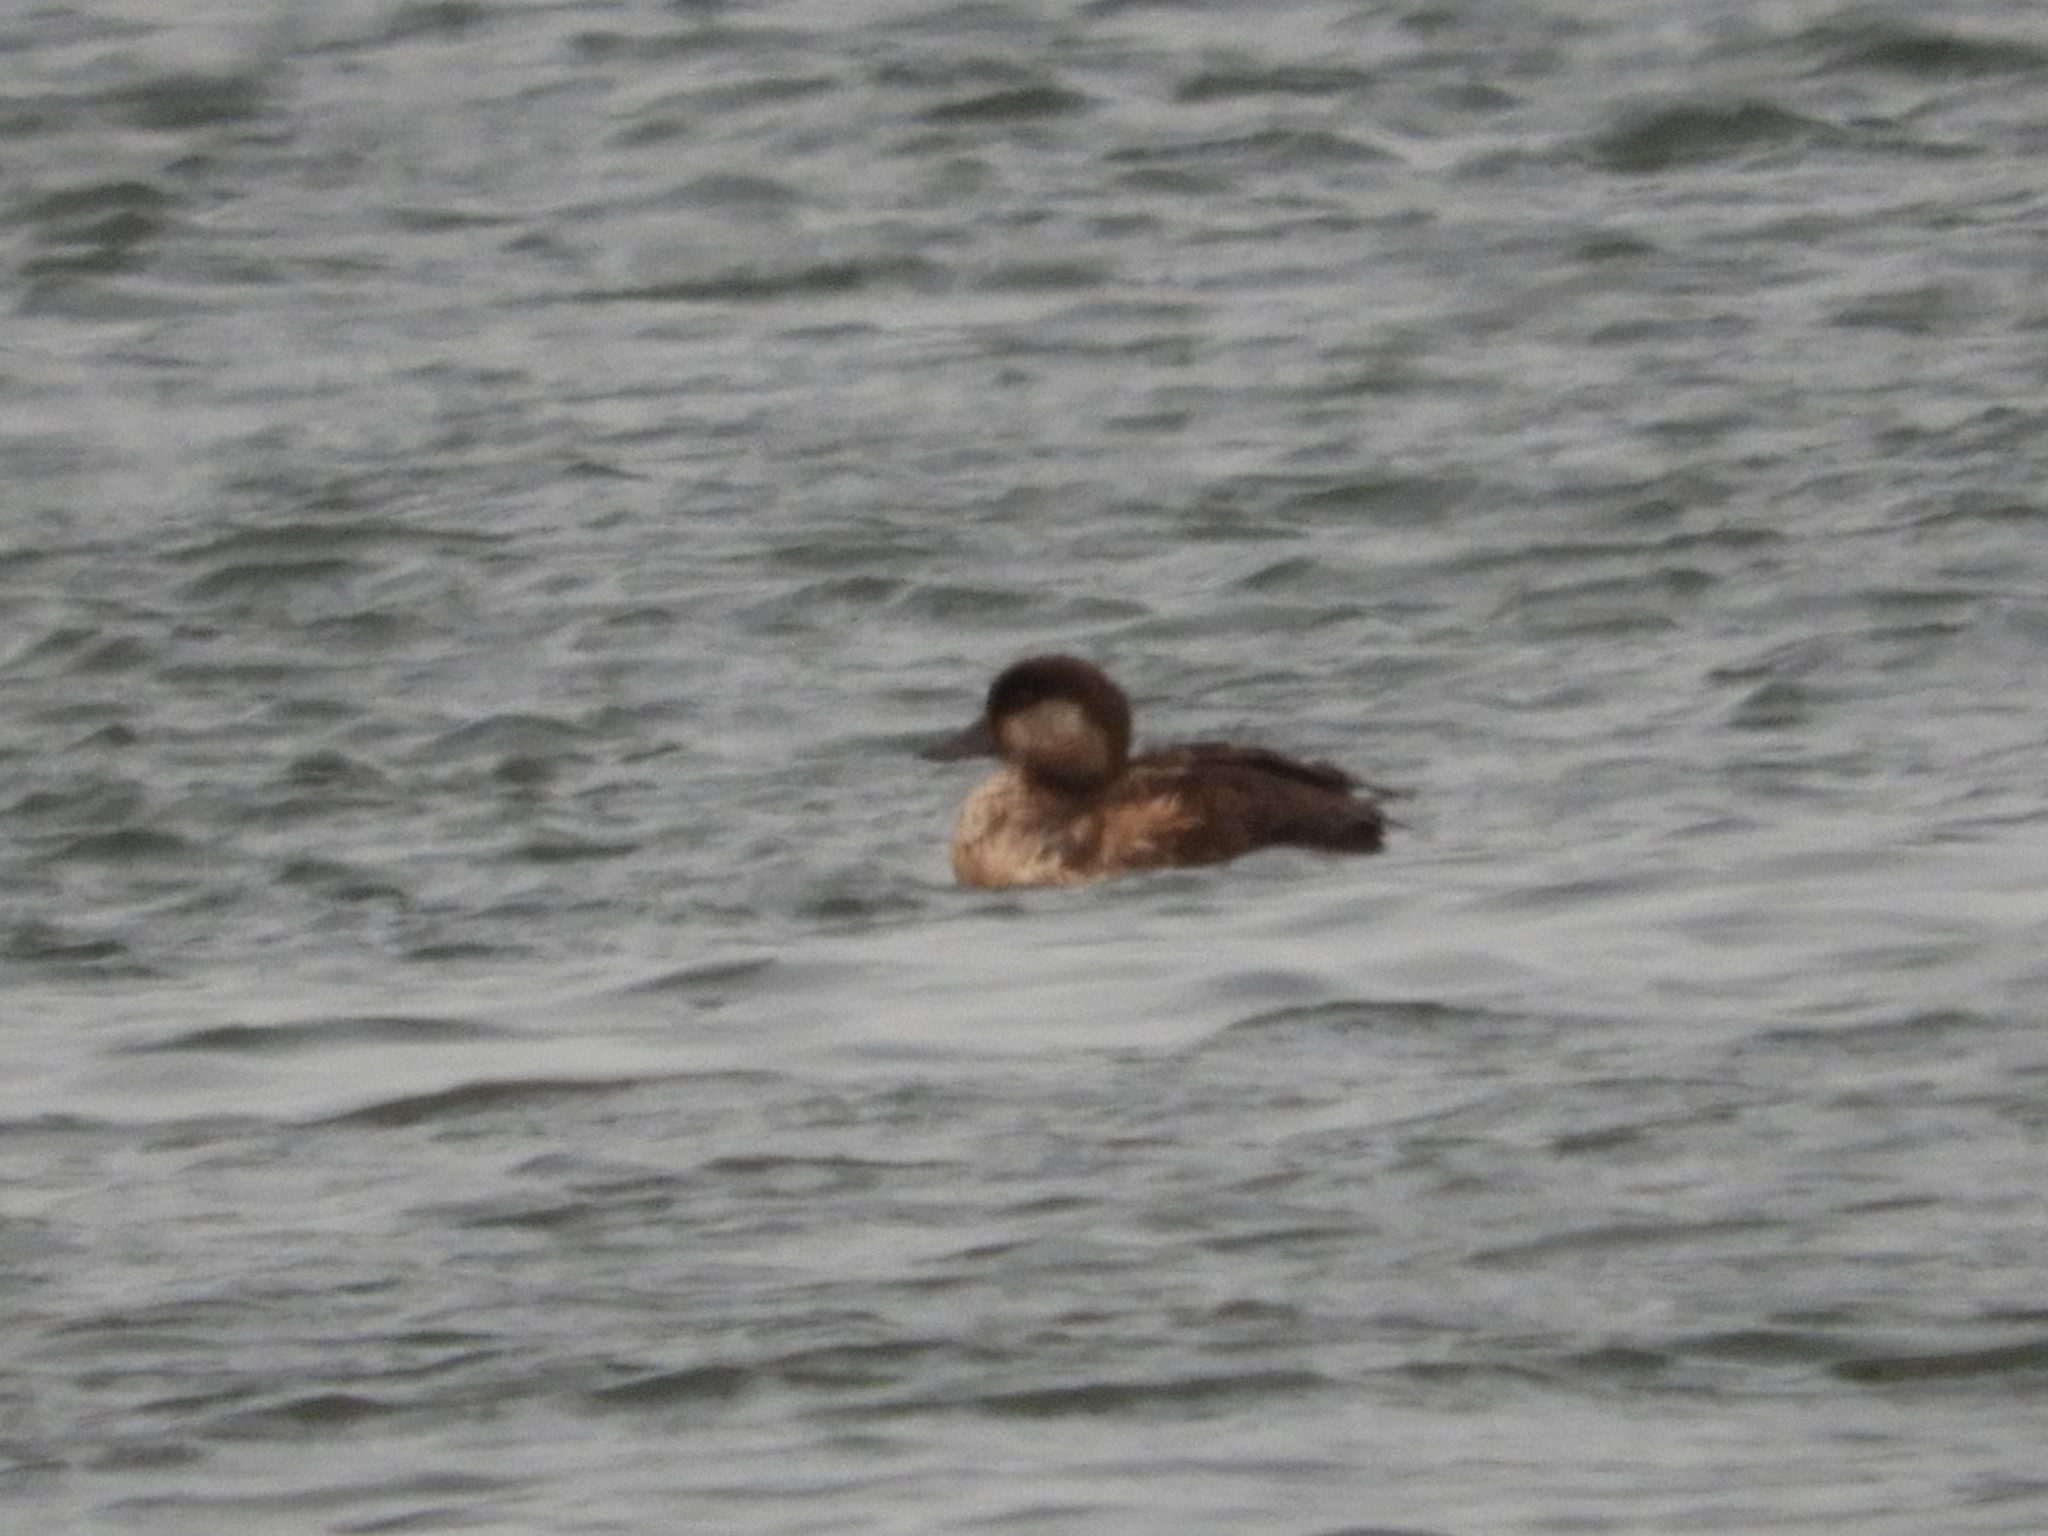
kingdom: Animalia
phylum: Chordata
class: Aves
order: Anseriformes
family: Anatidae
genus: Melanitta
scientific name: Melanitta americana
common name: Black scoter
